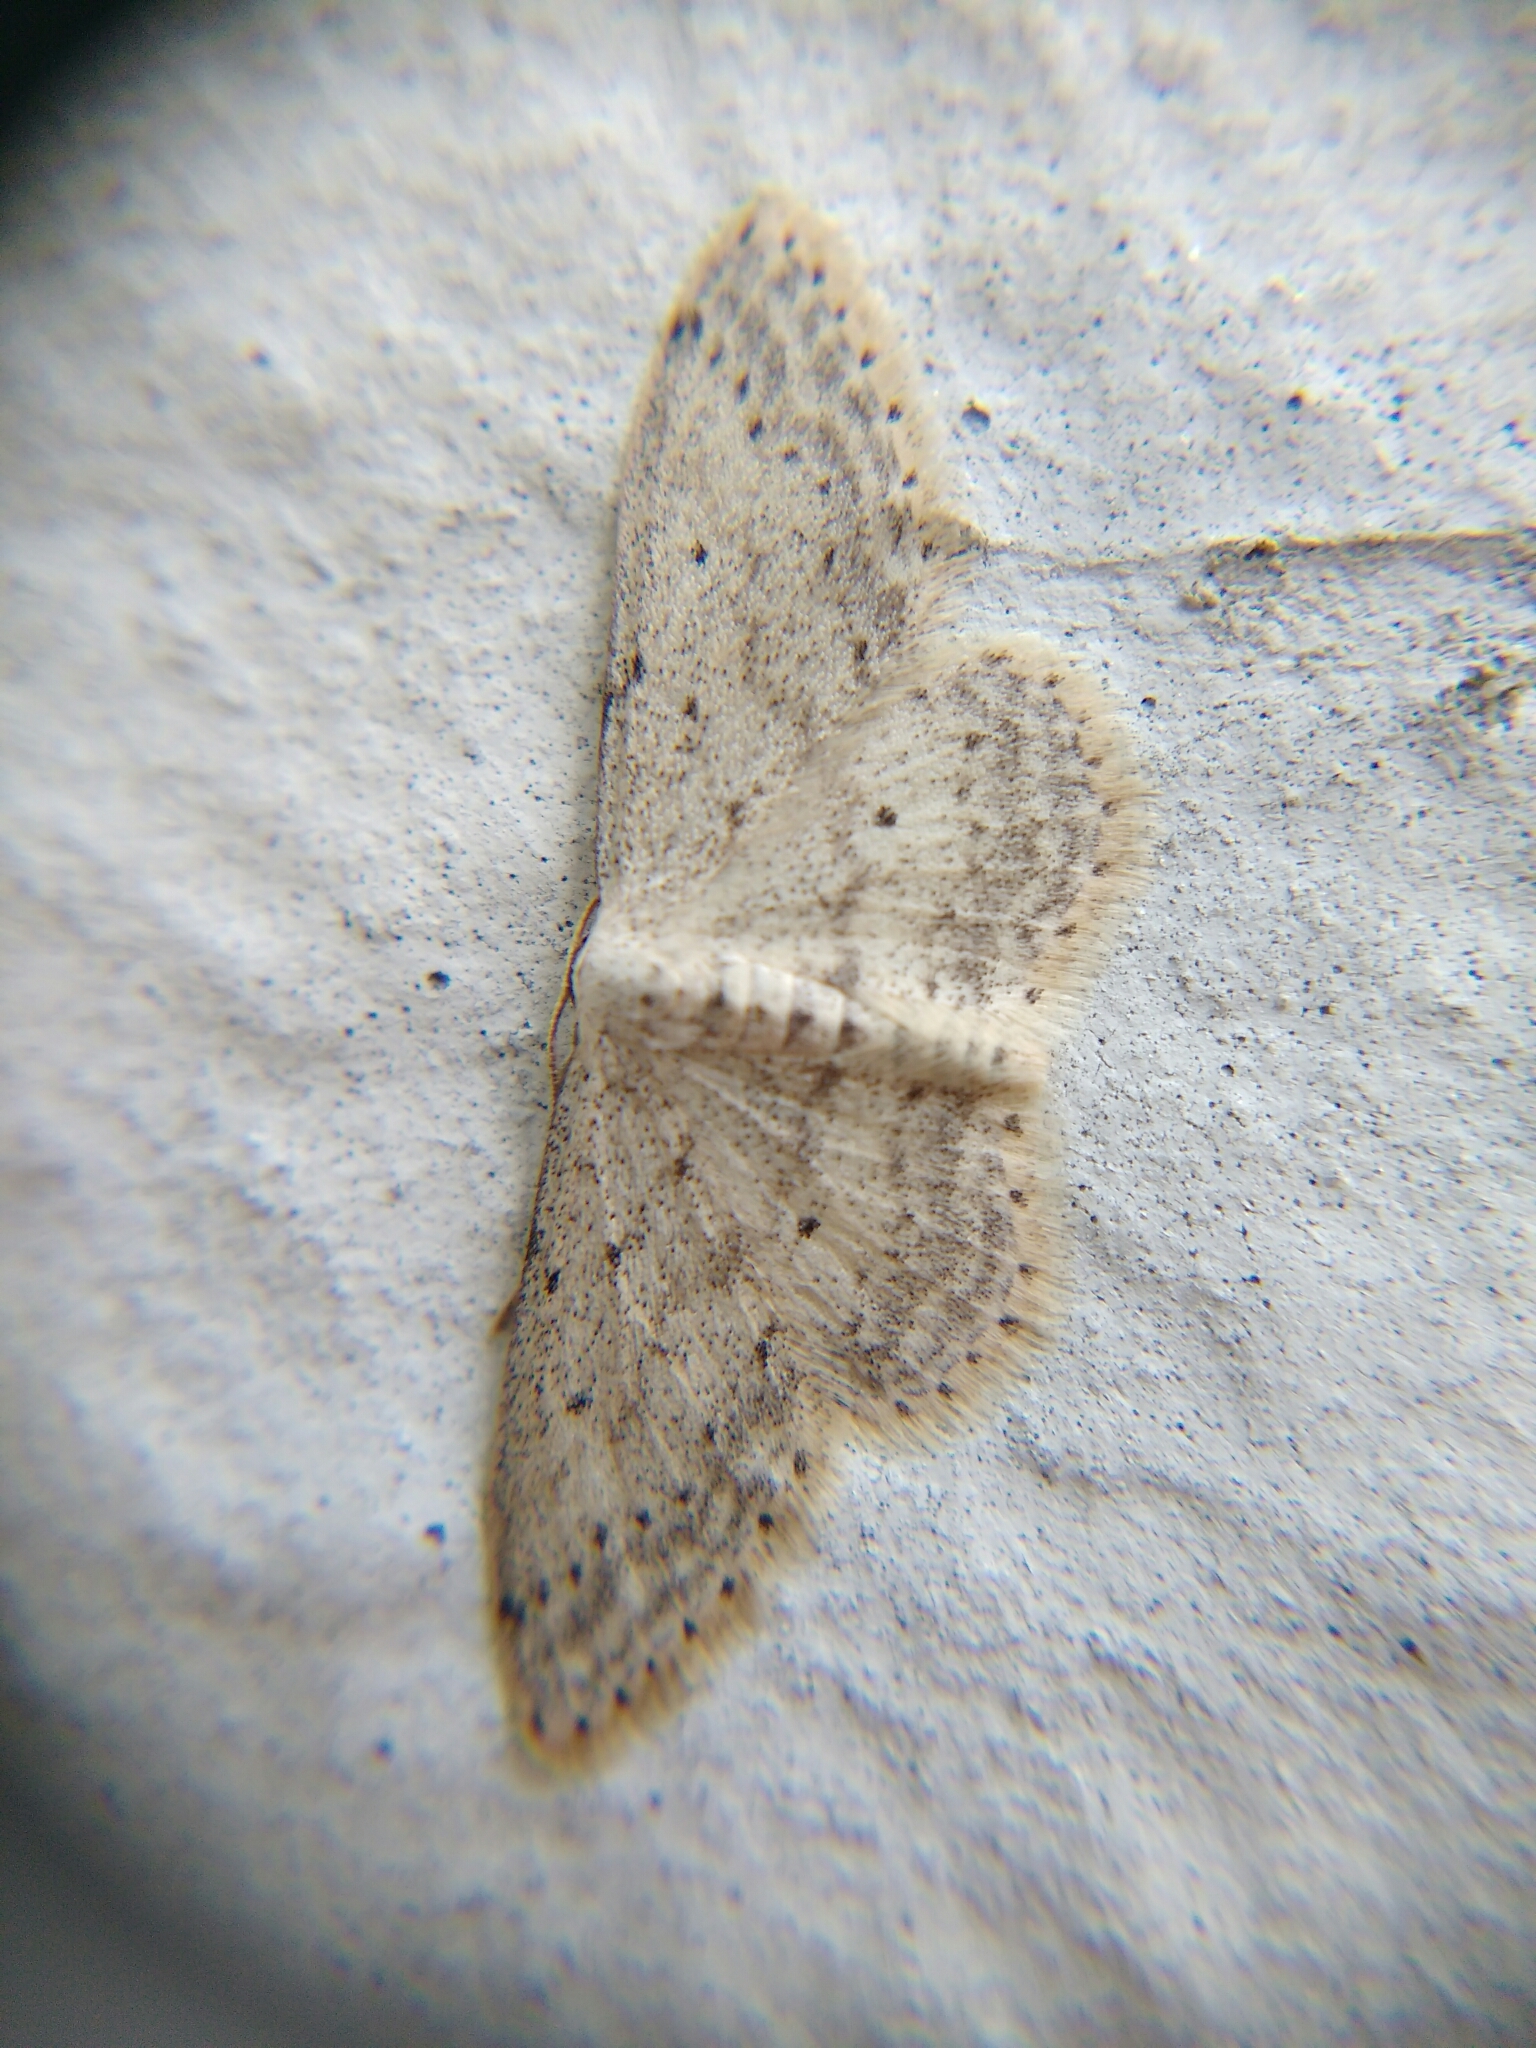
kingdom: Animalia
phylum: Arthropoda
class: Insecta
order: Lepidoptera
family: Geometridae
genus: Idaea
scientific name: Idaea seriata
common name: Small dusty wave
